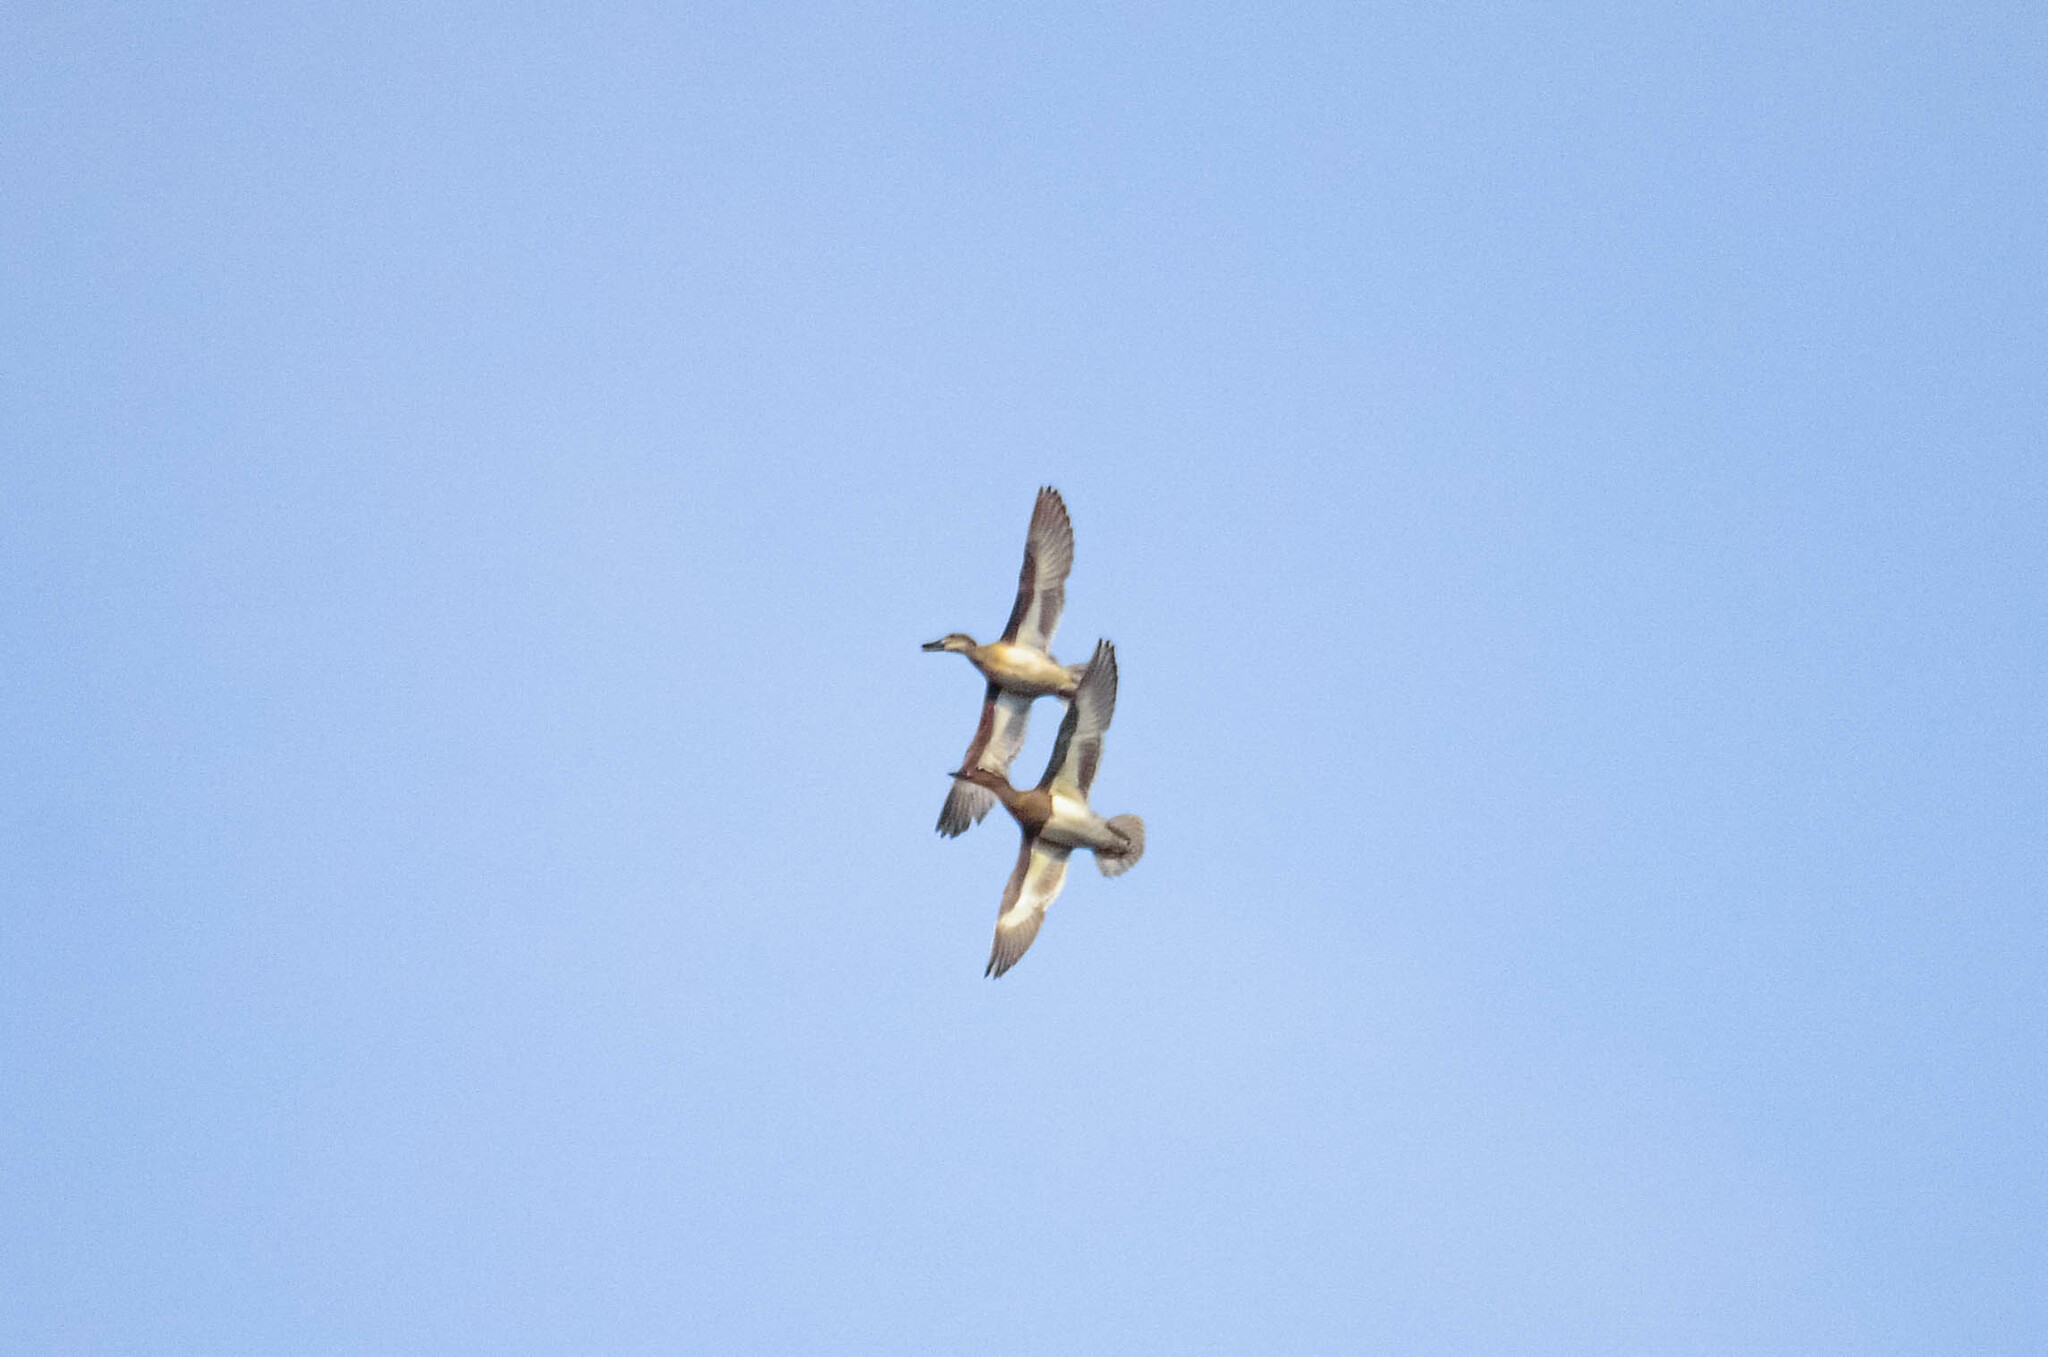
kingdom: Animalia
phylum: Chordata
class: Aves
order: Anseriformes
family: Anatidae
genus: Spatula
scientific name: Spatula querquedula
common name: Garganey
